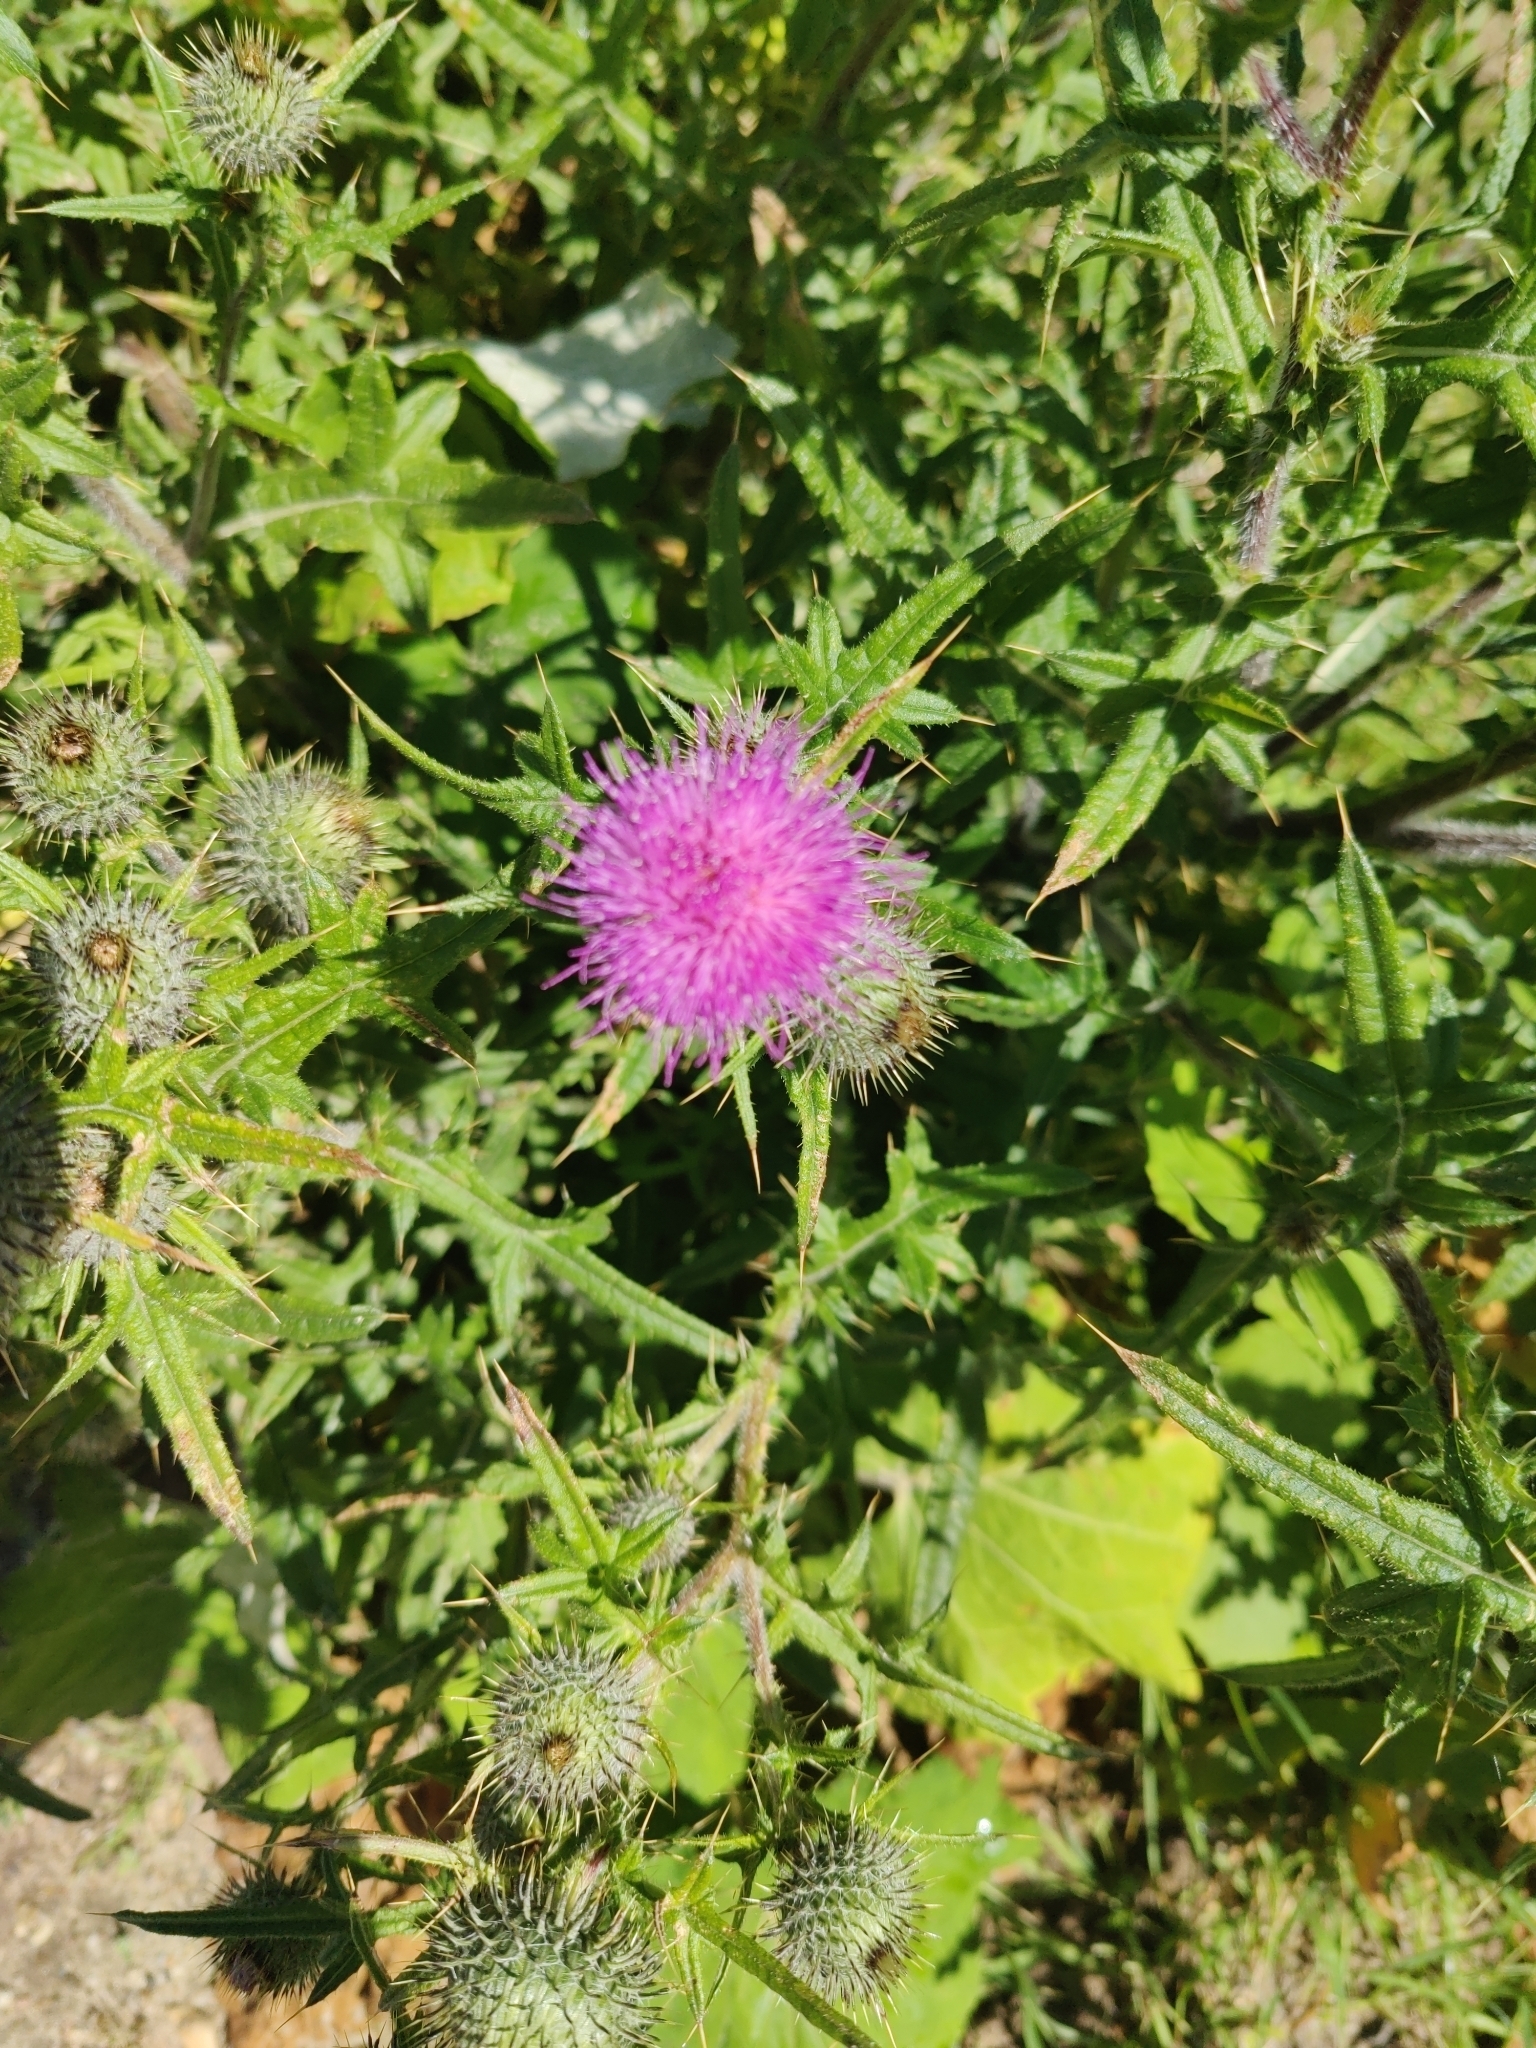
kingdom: Plantae
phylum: Tracheophyta
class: Magnoliopsida
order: Asterales
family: Asteraceae
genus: Cirsium
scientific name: Cirsium vulgare
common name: Bull thistle
